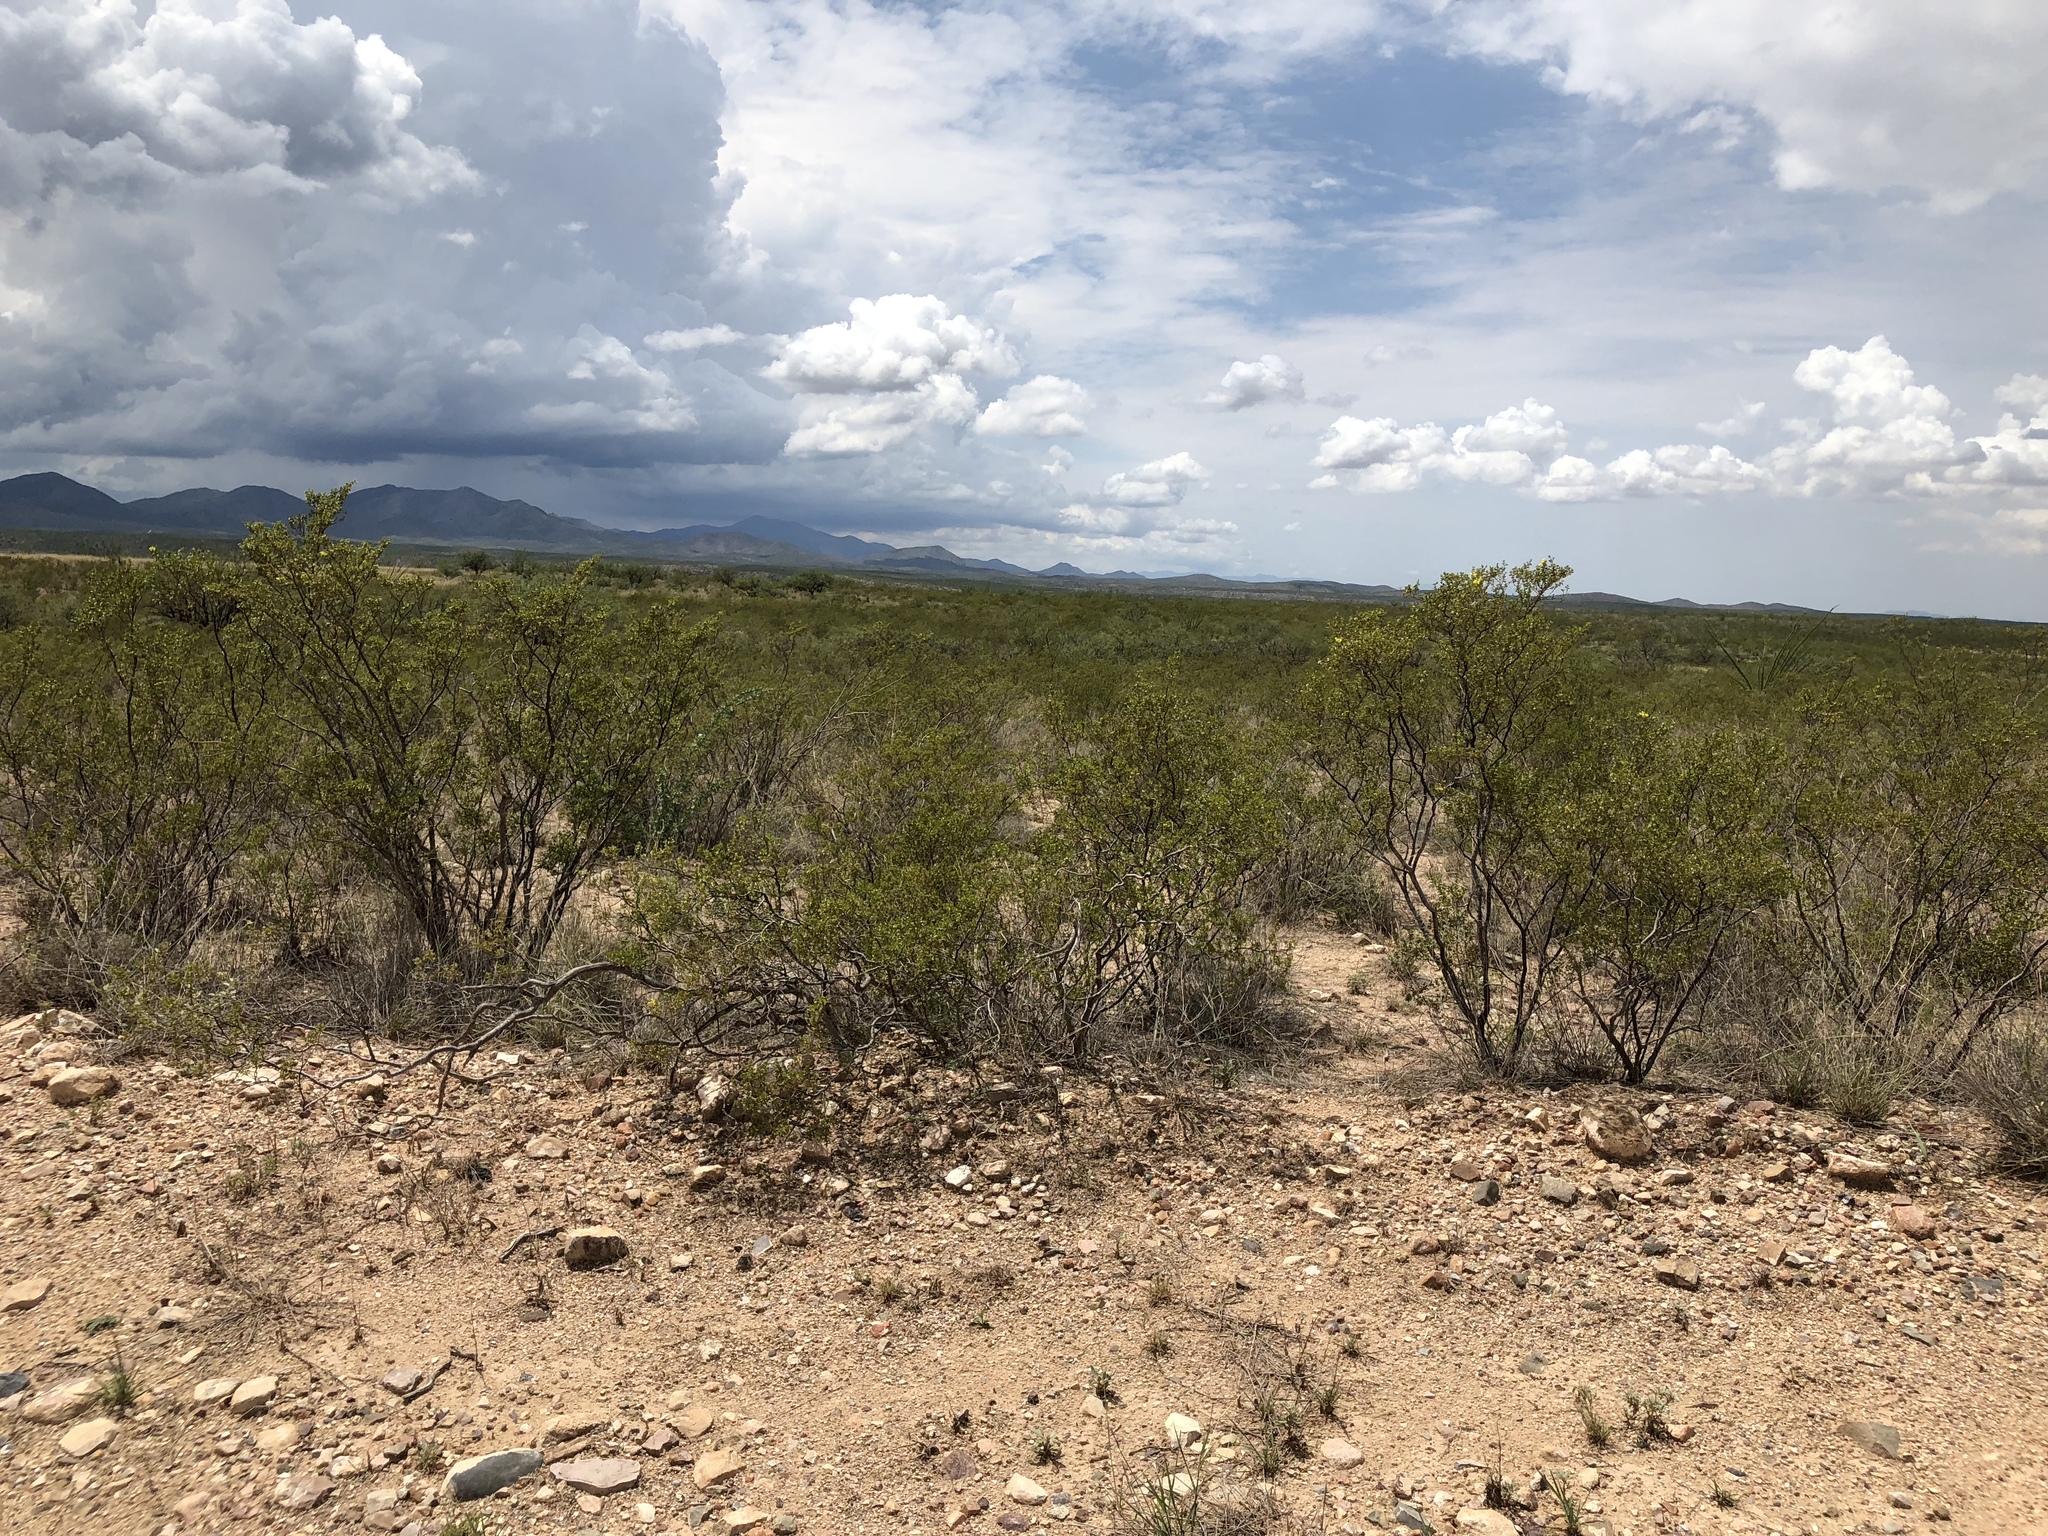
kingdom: Plantae
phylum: Tracheophyta
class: Magnoliopsida
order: Zygophyllales
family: Zygophyllaceae
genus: Larrea
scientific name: Larrea tridentata
